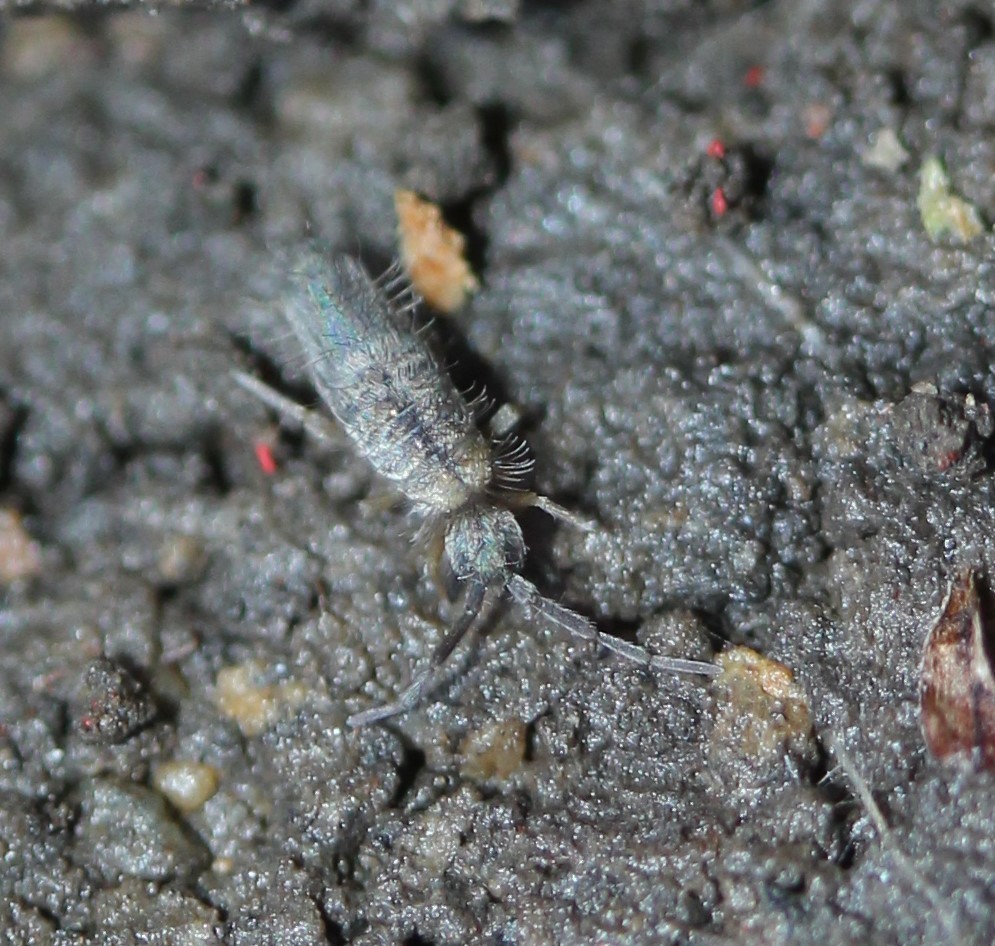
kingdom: Animalia
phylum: Arthropoda
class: Collembola
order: Entomobryomorpha
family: Entomobryidae
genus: Entomobrya
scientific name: Entomobrya unostrigata
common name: Springtail
